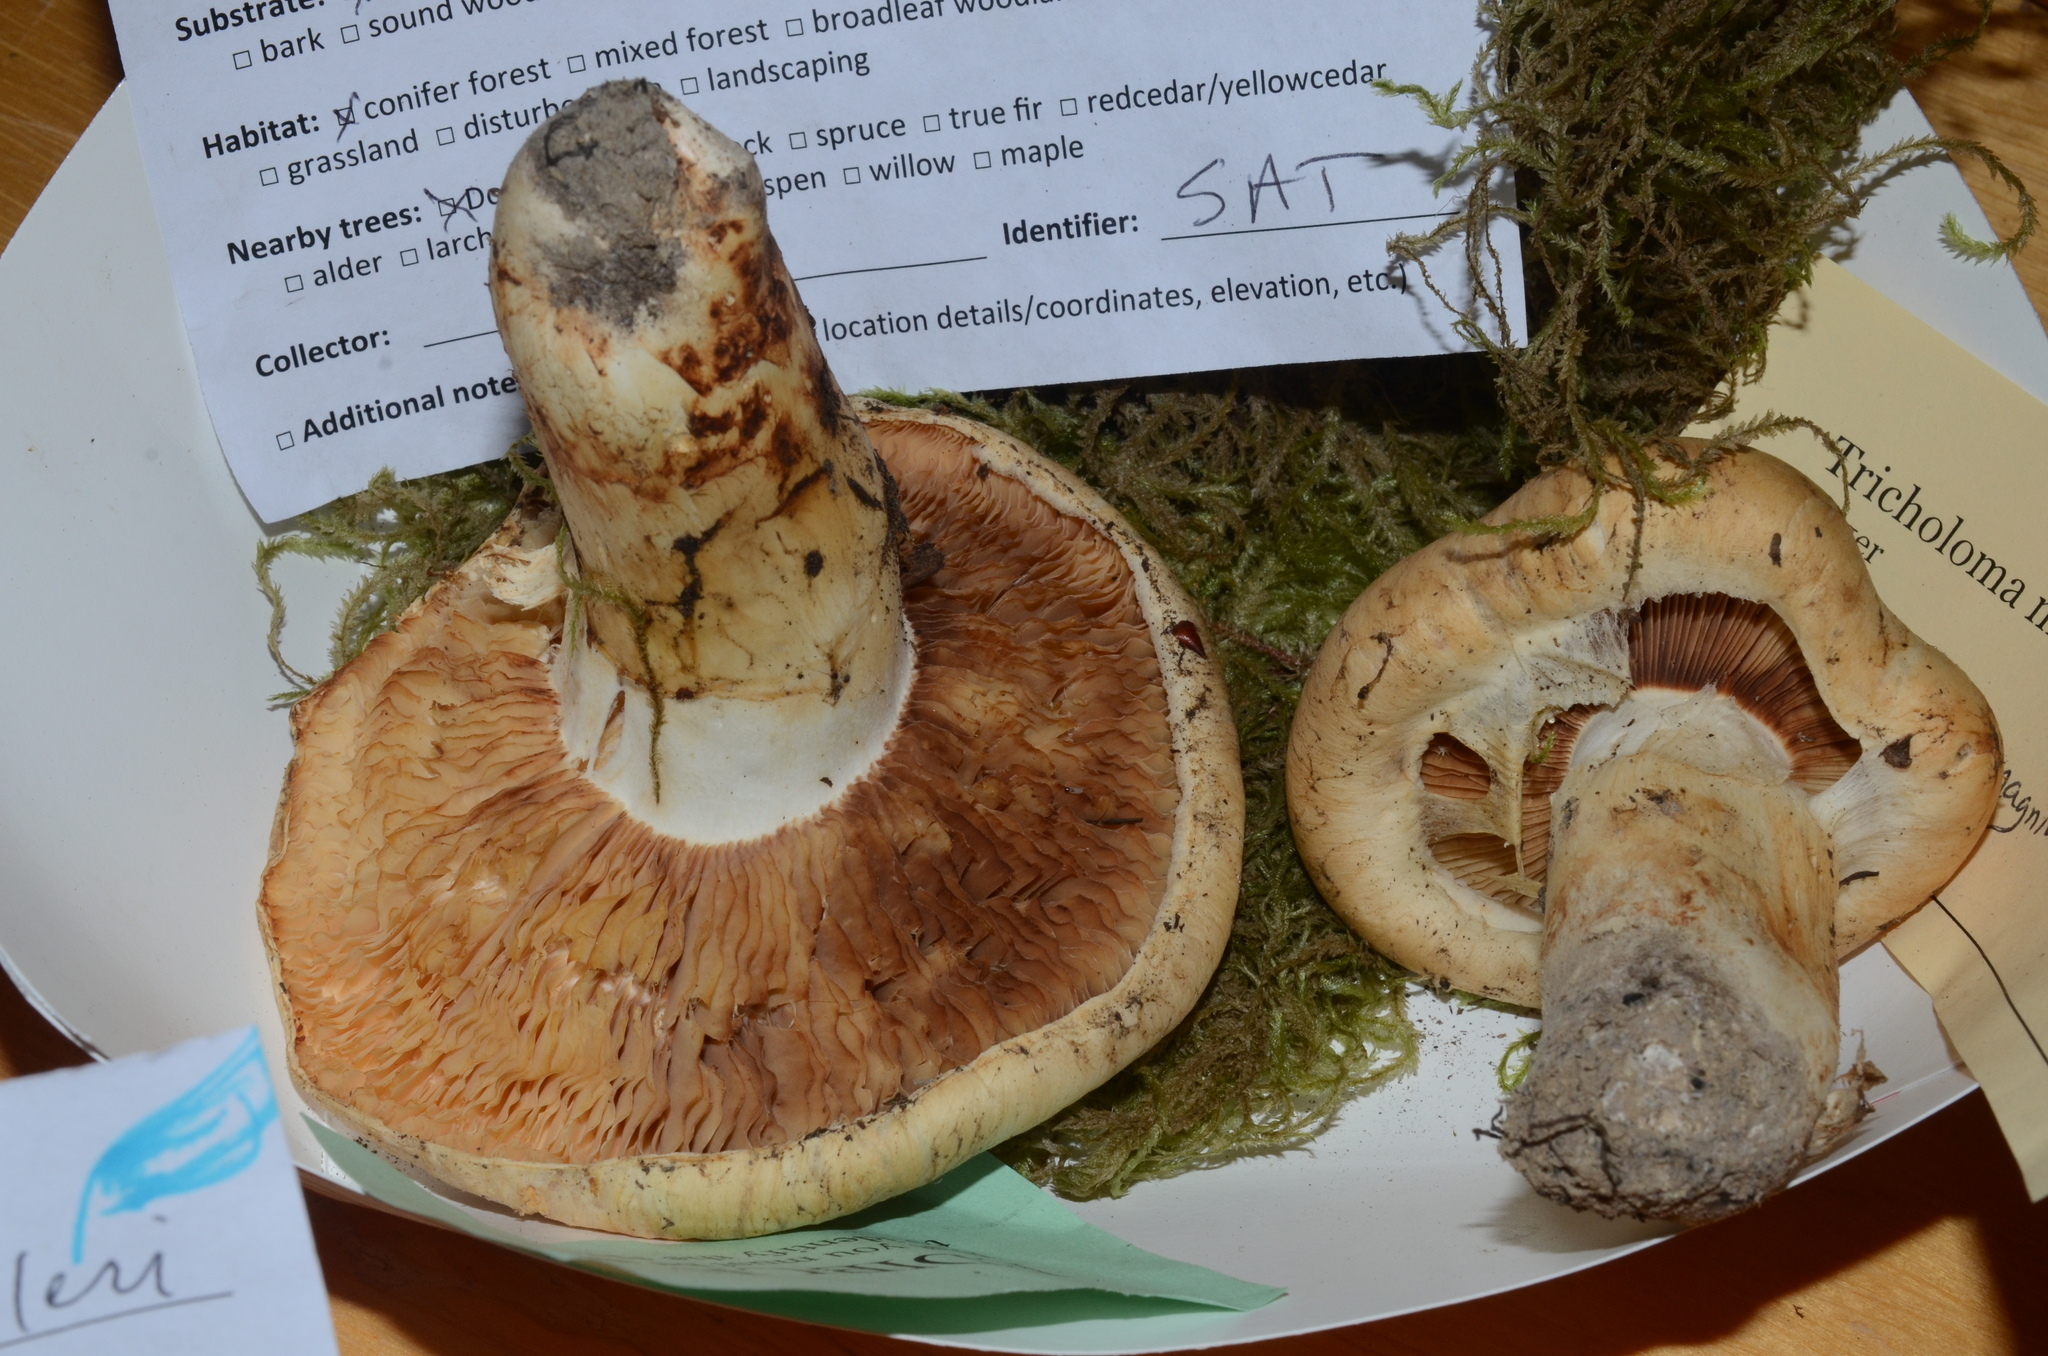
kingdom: Fungi
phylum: Basidiomycota
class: Agaricomycetes
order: Agaricales
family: Tricholomataceae
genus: Tricholoma
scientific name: Tricholoma murrillianum
